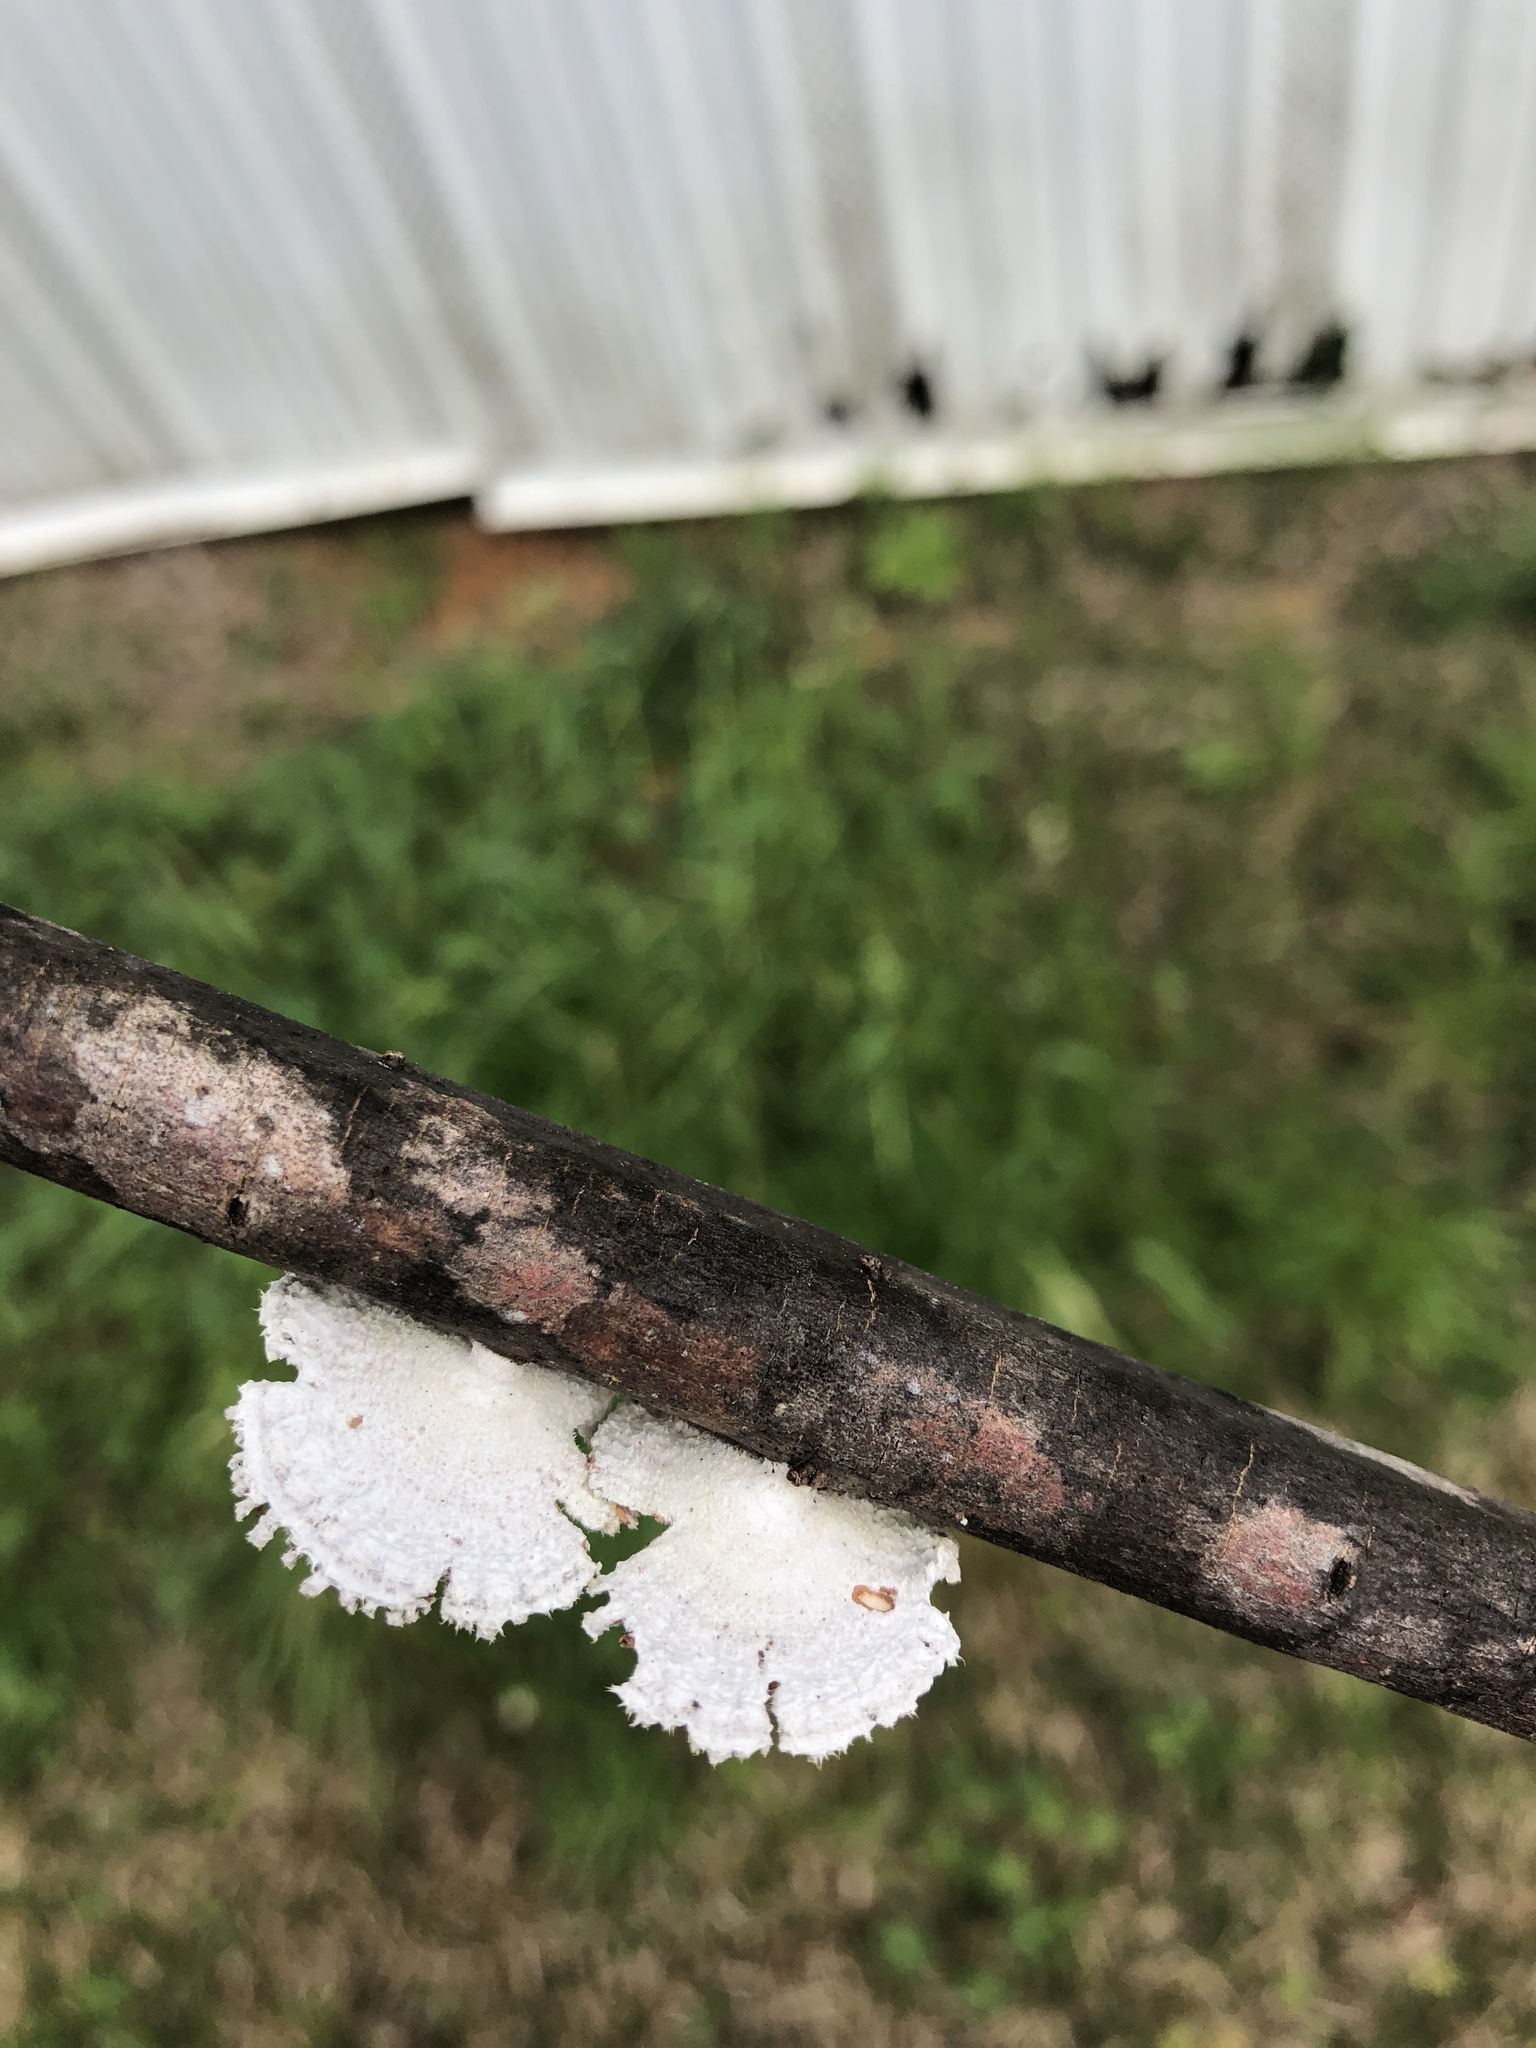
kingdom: Fungi
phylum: Basidiomycota
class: Agaricomycetes
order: Agaricales
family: Schizophyllaceae
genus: Schizophyllum
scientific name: Schizophyllum commune
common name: Common porecrust
